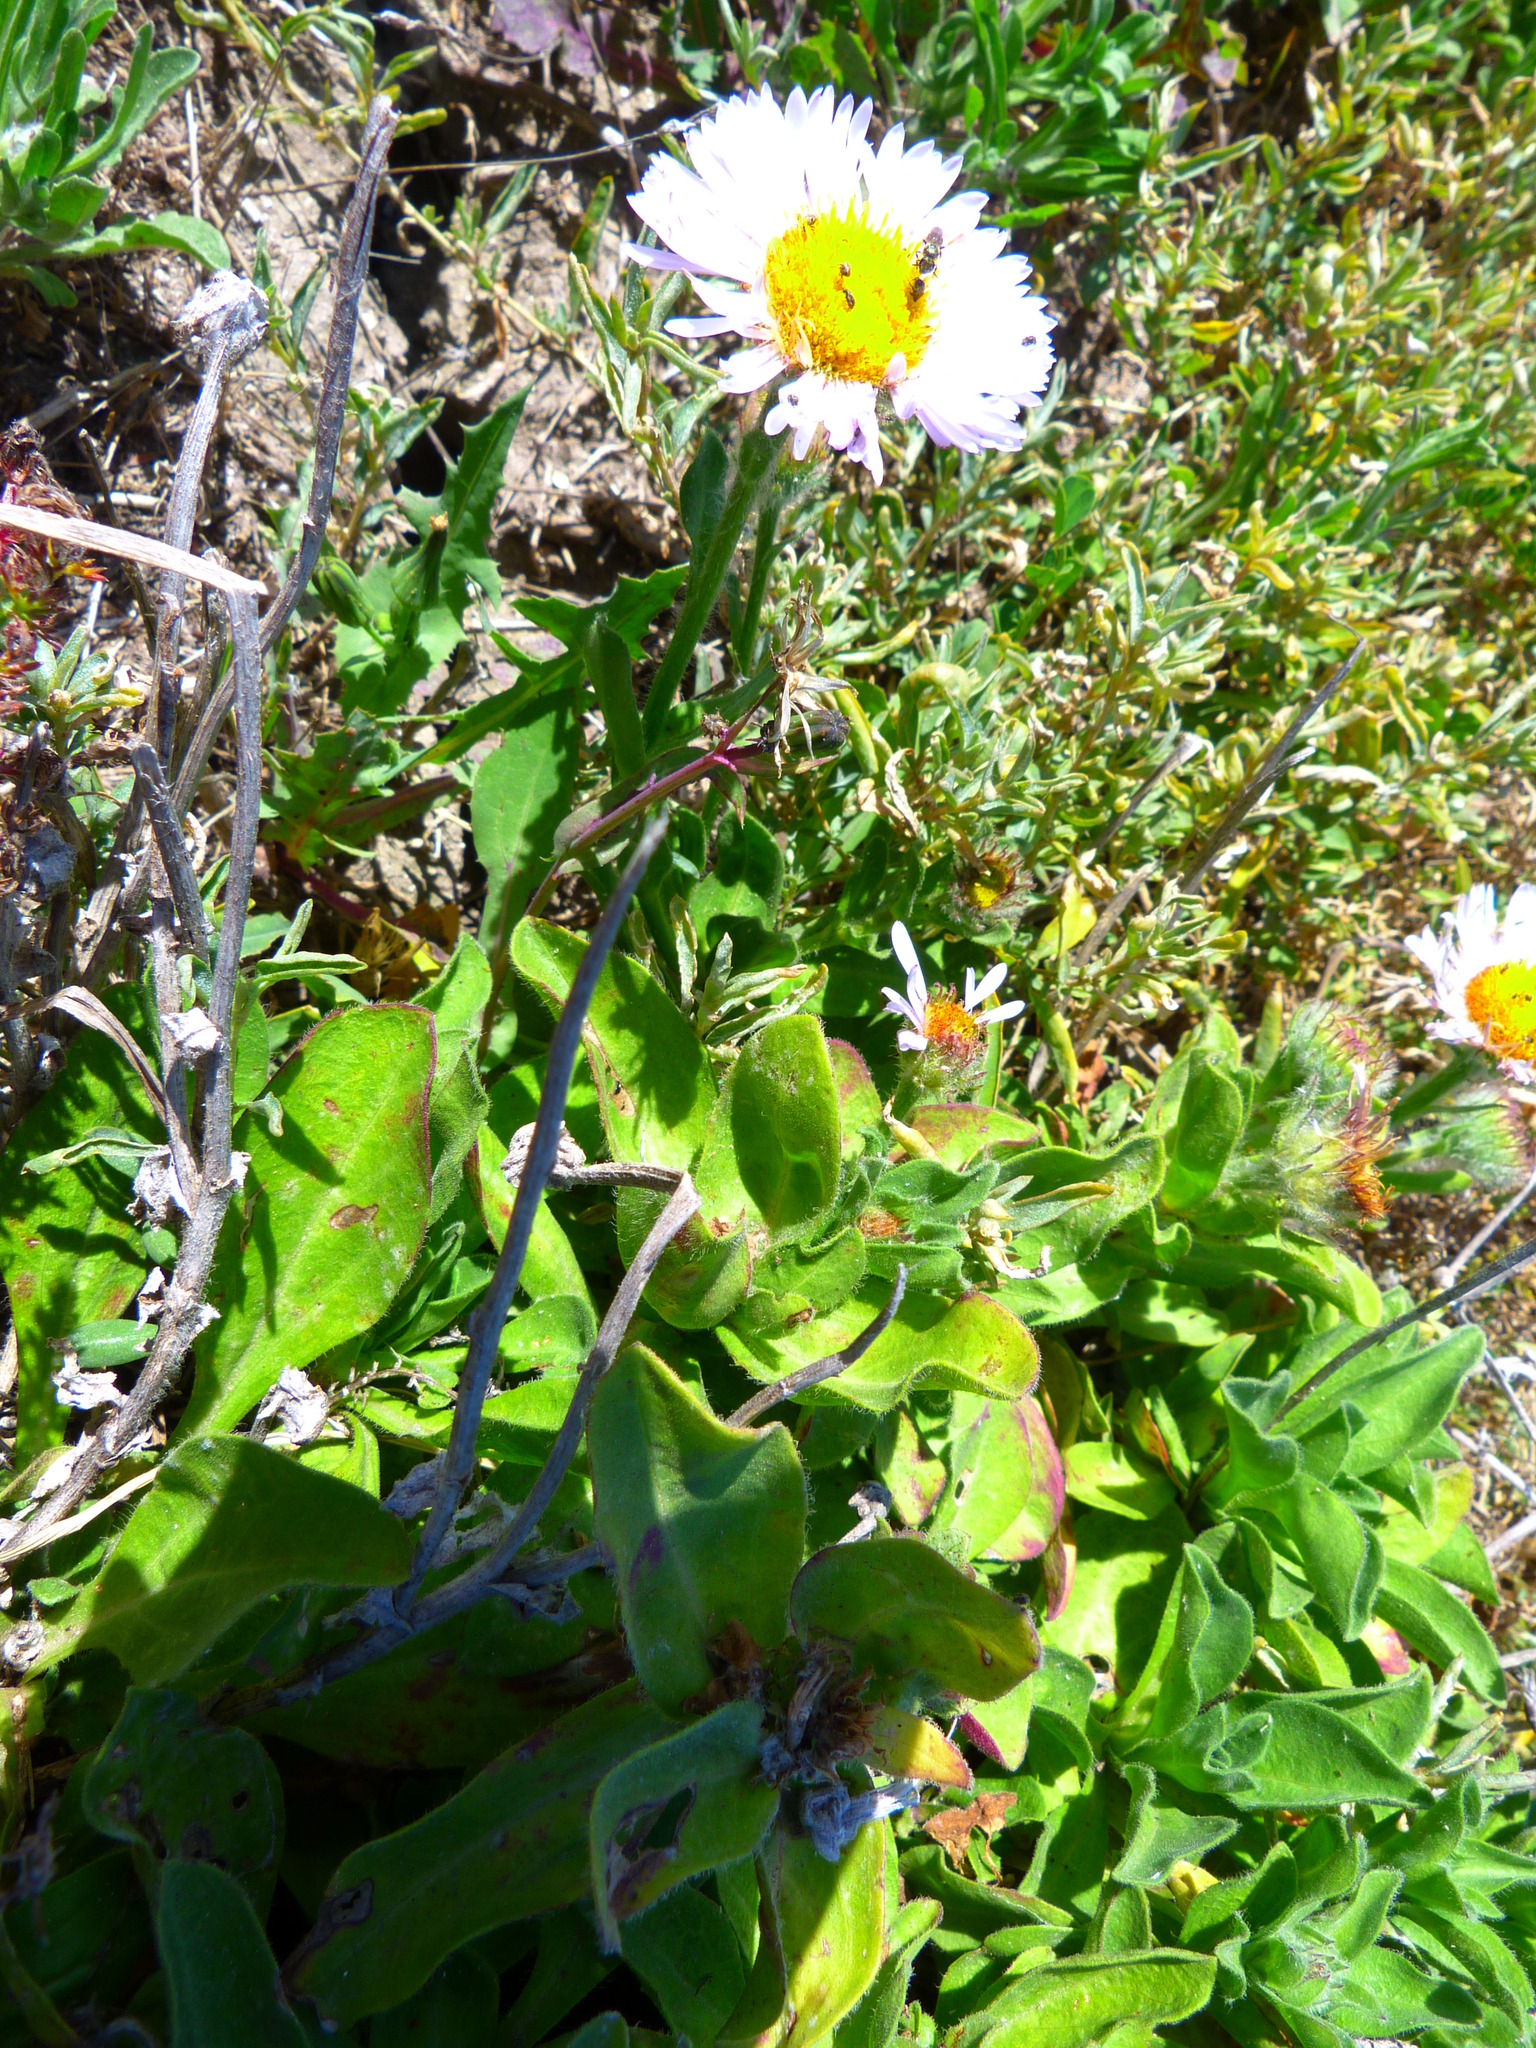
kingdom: Plantae
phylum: Tracheophyta
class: Magnoliopsida
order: Asterales
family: Asteraceae
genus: Erigeron
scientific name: Erigeron glaucus
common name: Seaside daisy
